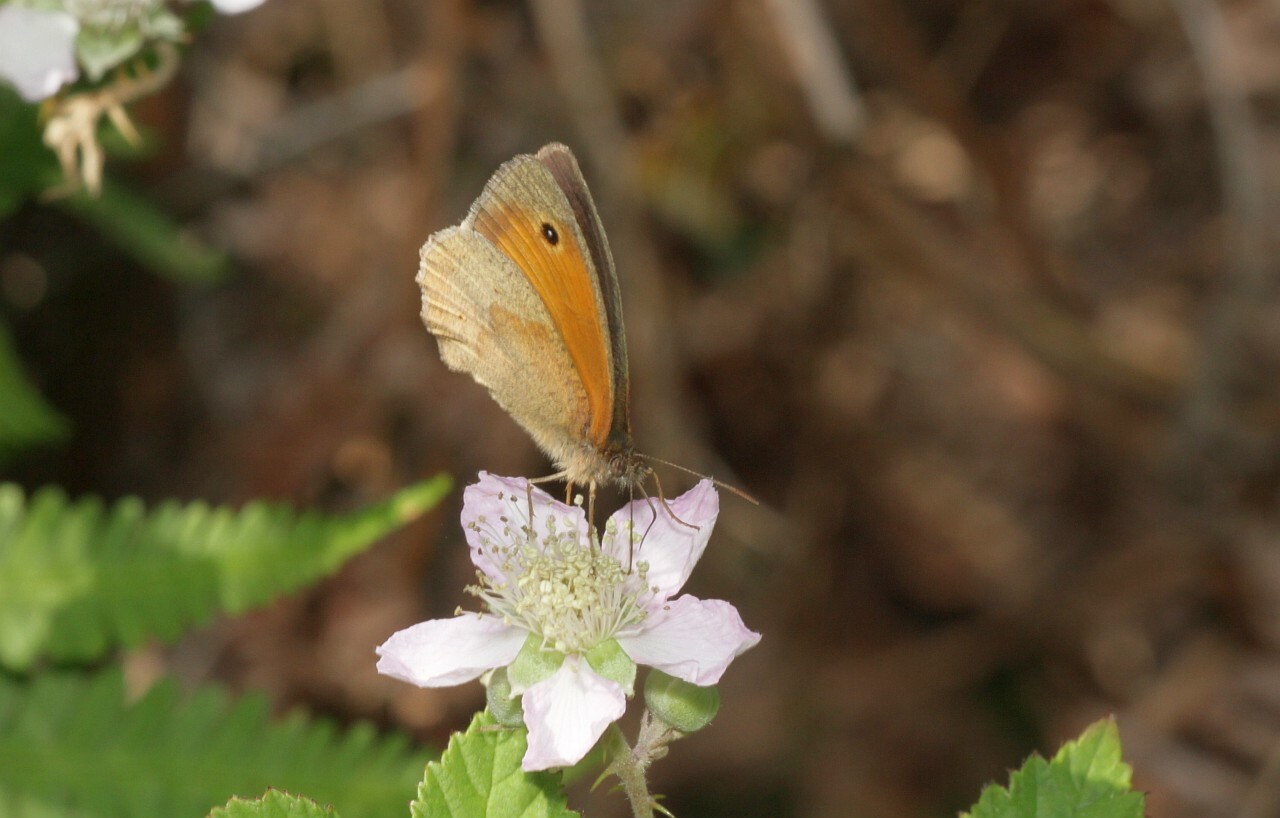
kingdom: Animalia
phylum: Arthropoda
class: Insecta
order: Lepidoptera
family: Nymphalidae
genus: Maniola
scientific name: Maniola jurtina
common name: Meadow brown
